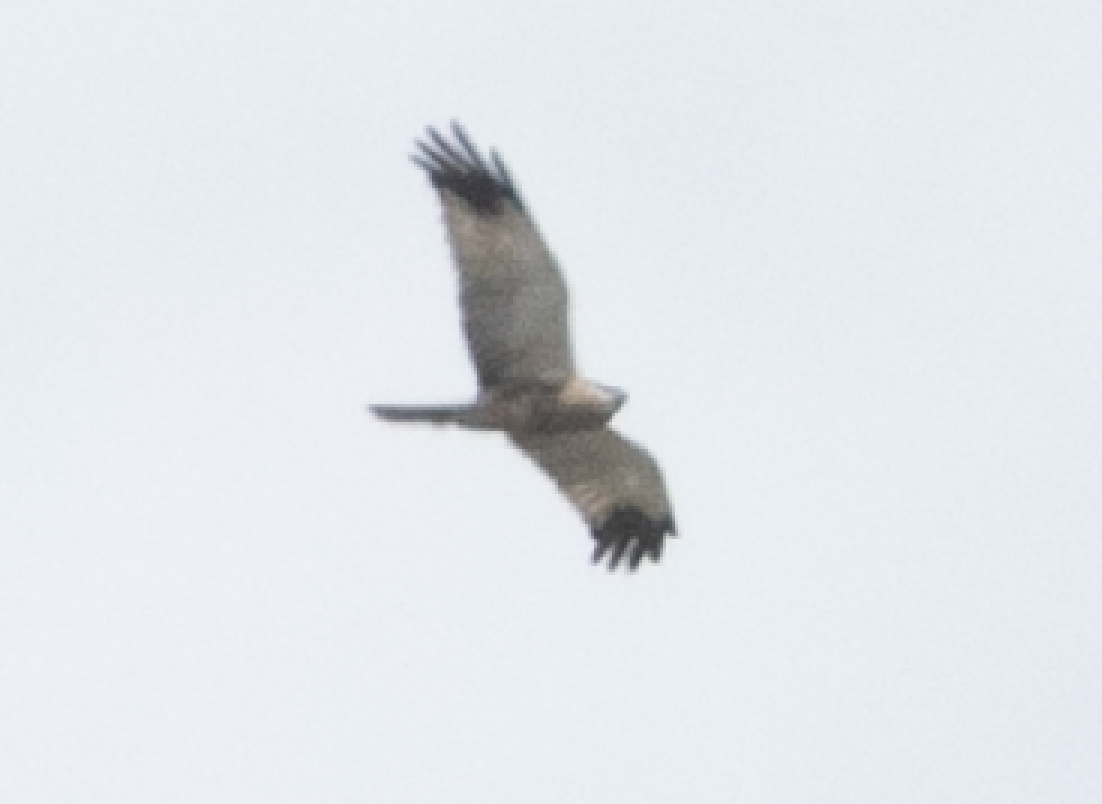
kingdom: Animalia
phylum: Chordata
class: Aves
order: Accipitriformes
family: Accipitridae
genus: Circus
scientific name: Circus aeruginosus
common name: Western marsh harrier
